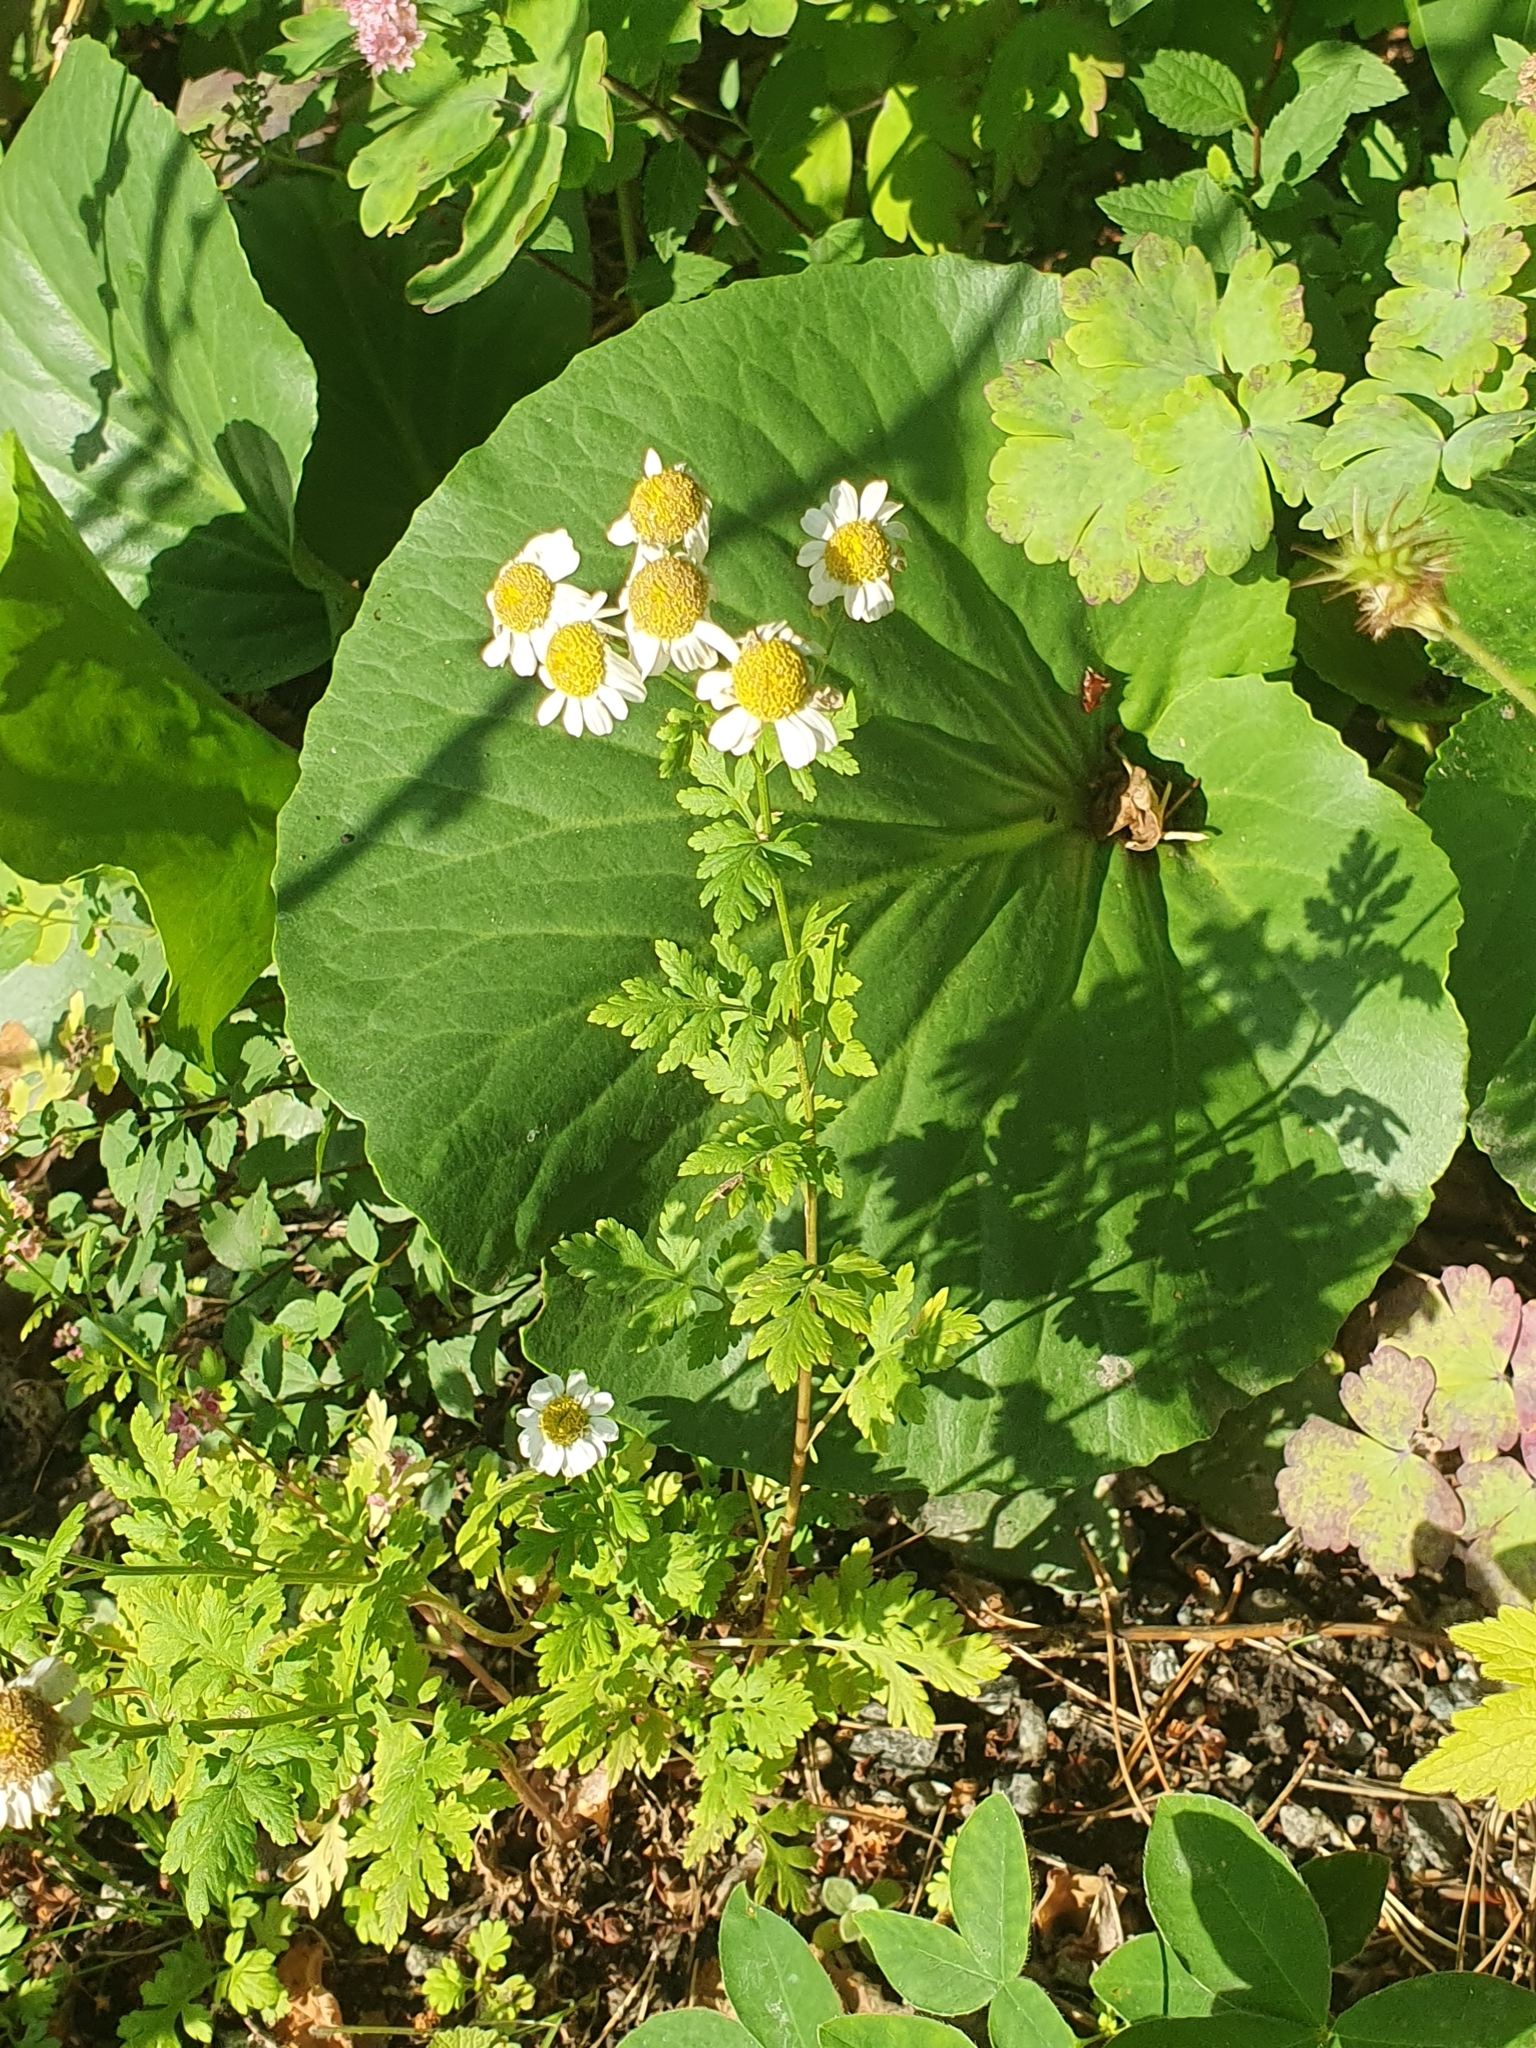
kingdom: Plantae
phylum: Tracheophyta
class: Magnoliopsida
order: Asterales
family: Asteraceae
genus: Tanacetum
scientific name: Tanacetum parthenium
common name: Feverfew
